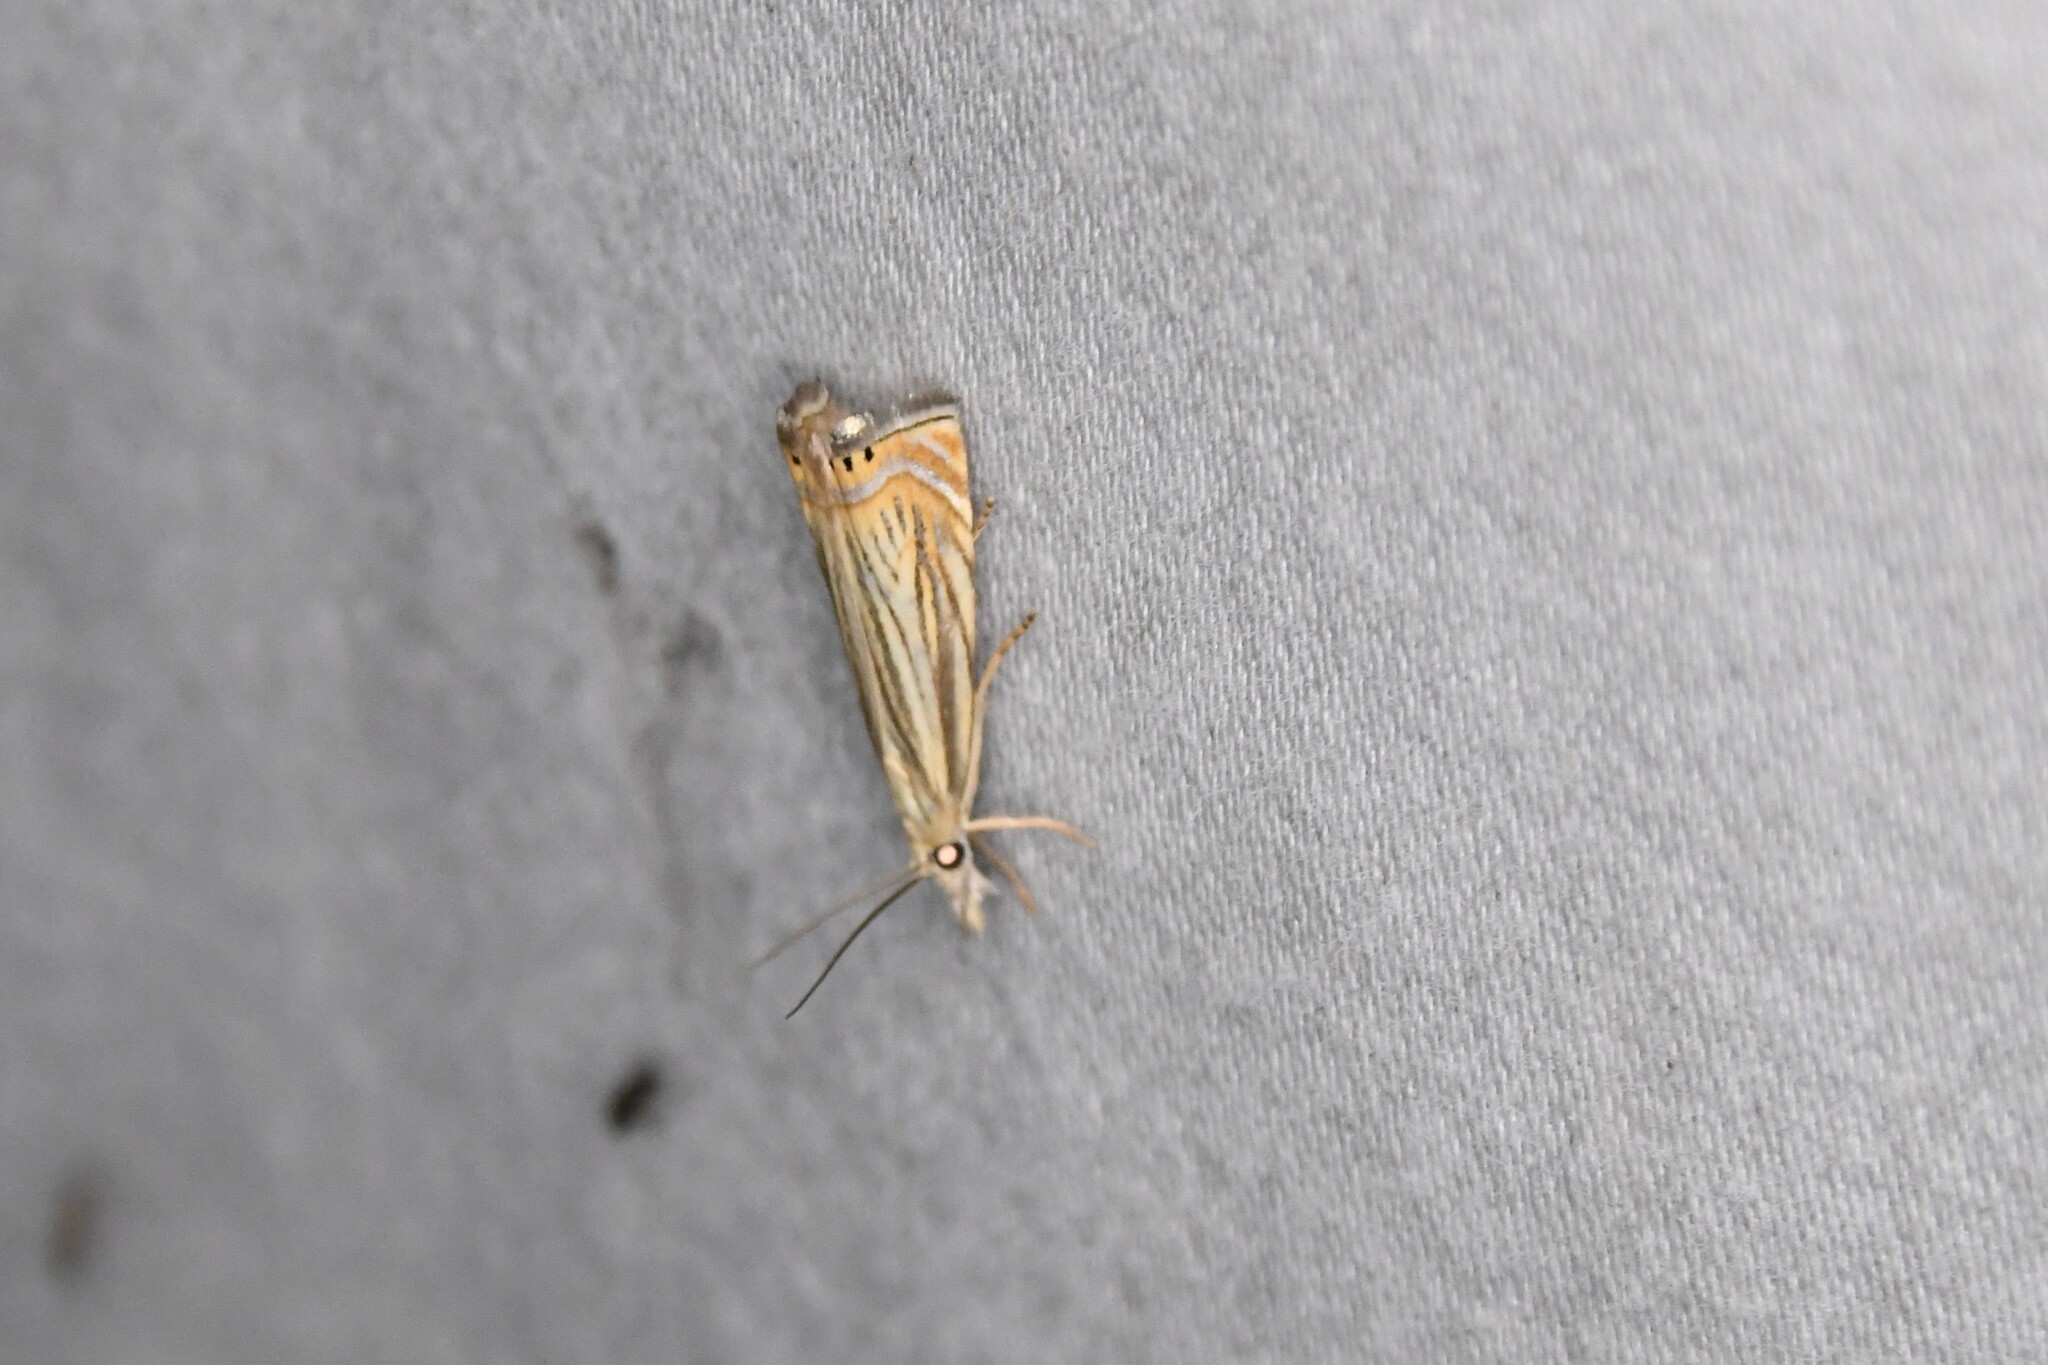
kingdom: Animalia
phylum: Arthropoda
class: Insecta
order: Lepidoptera
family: Crambidae
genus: Chrysoteuchia
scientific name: Chrysoteuchia topiarius
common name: Topiary grass-veneer
